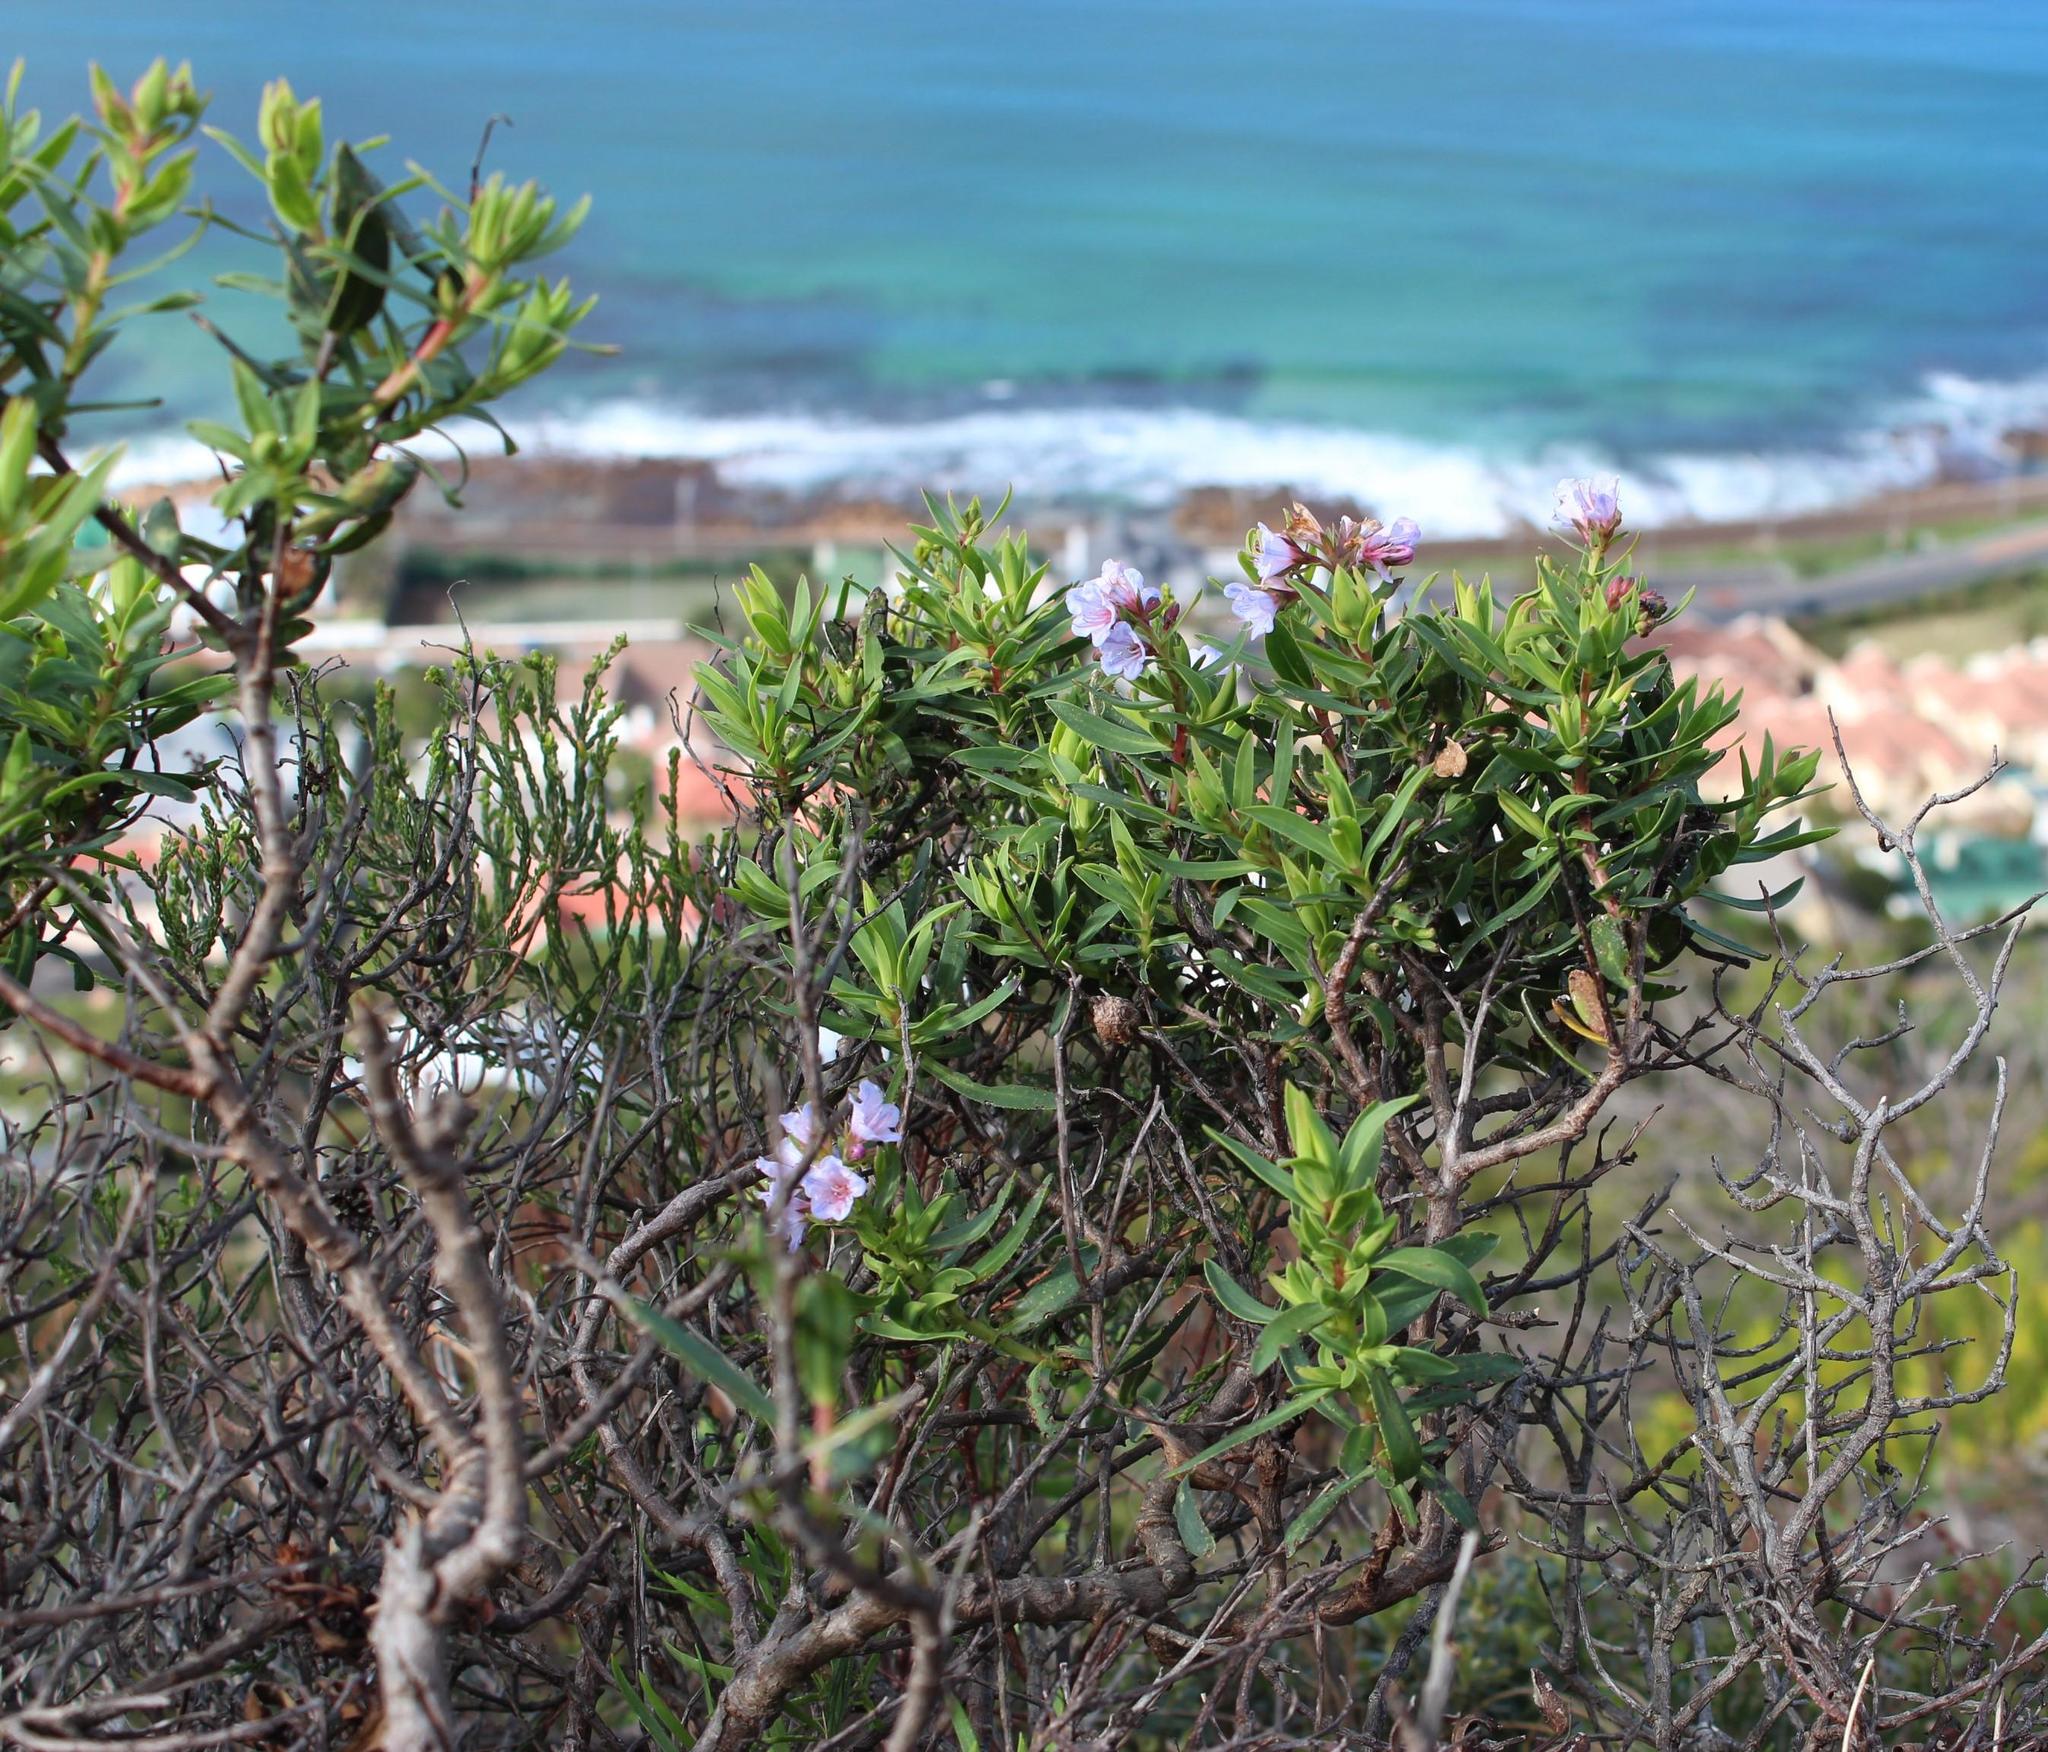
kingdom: Plantae
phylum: Tracheophyta
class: Magnoliopsida
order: Boraginales
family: Boraginaceae
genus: Lobostemon
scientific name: Lobostemon glaucophyllus
